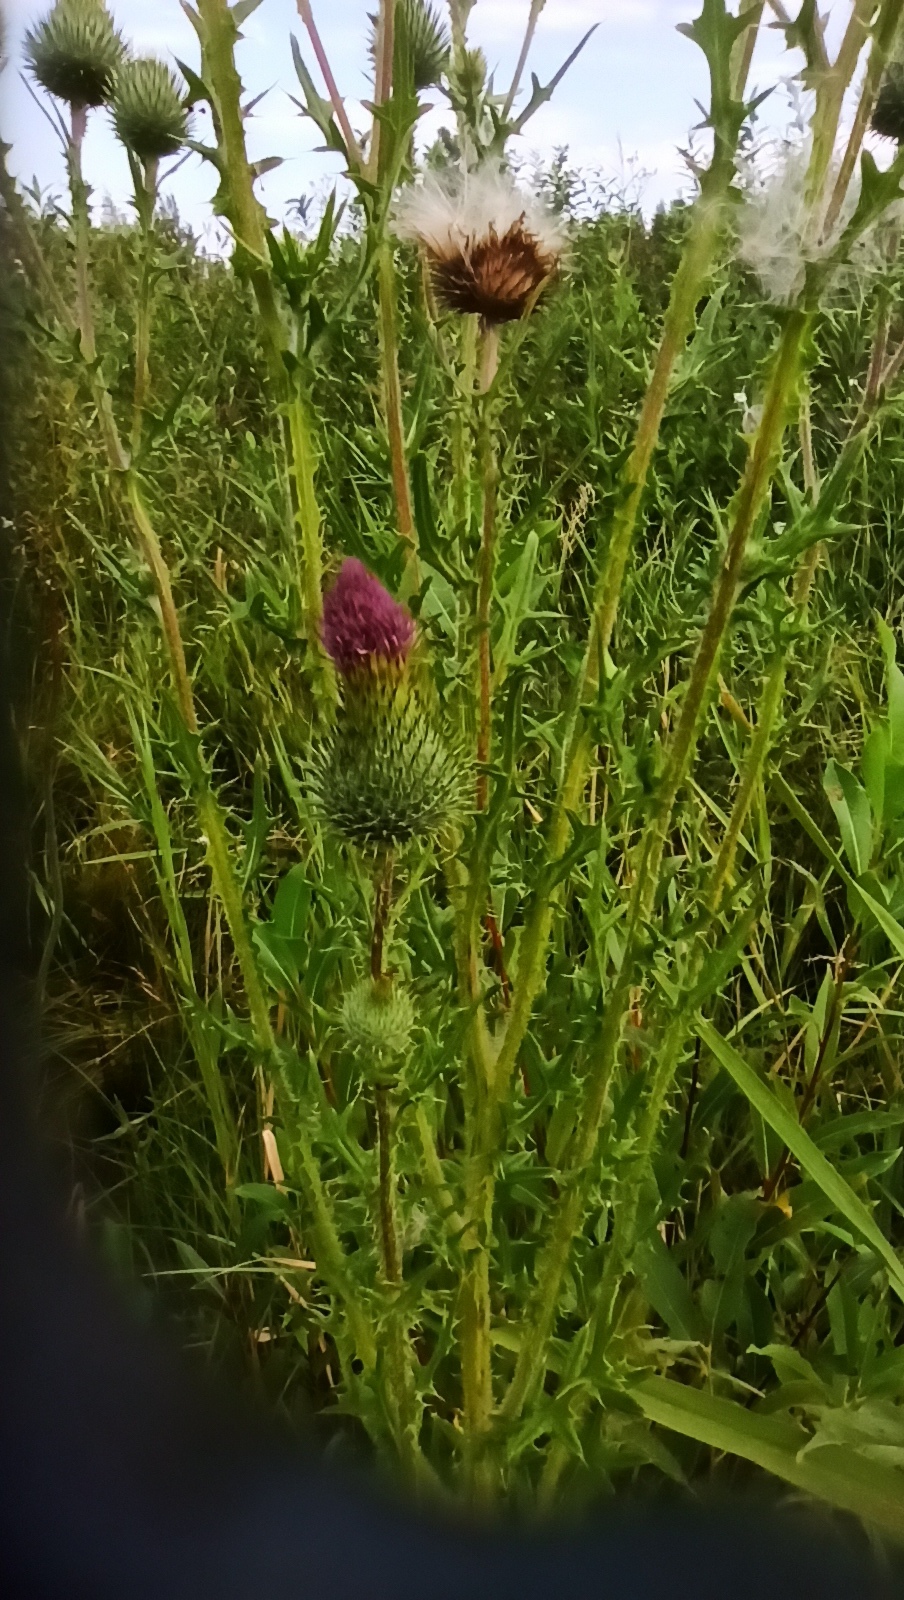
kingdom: Plantae
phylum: Tracheophyta
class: Magnoliopsida
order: Asterales
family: Asteraceae
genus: Cirsium
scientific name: Cirsium vulgare
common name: Bull thistle
